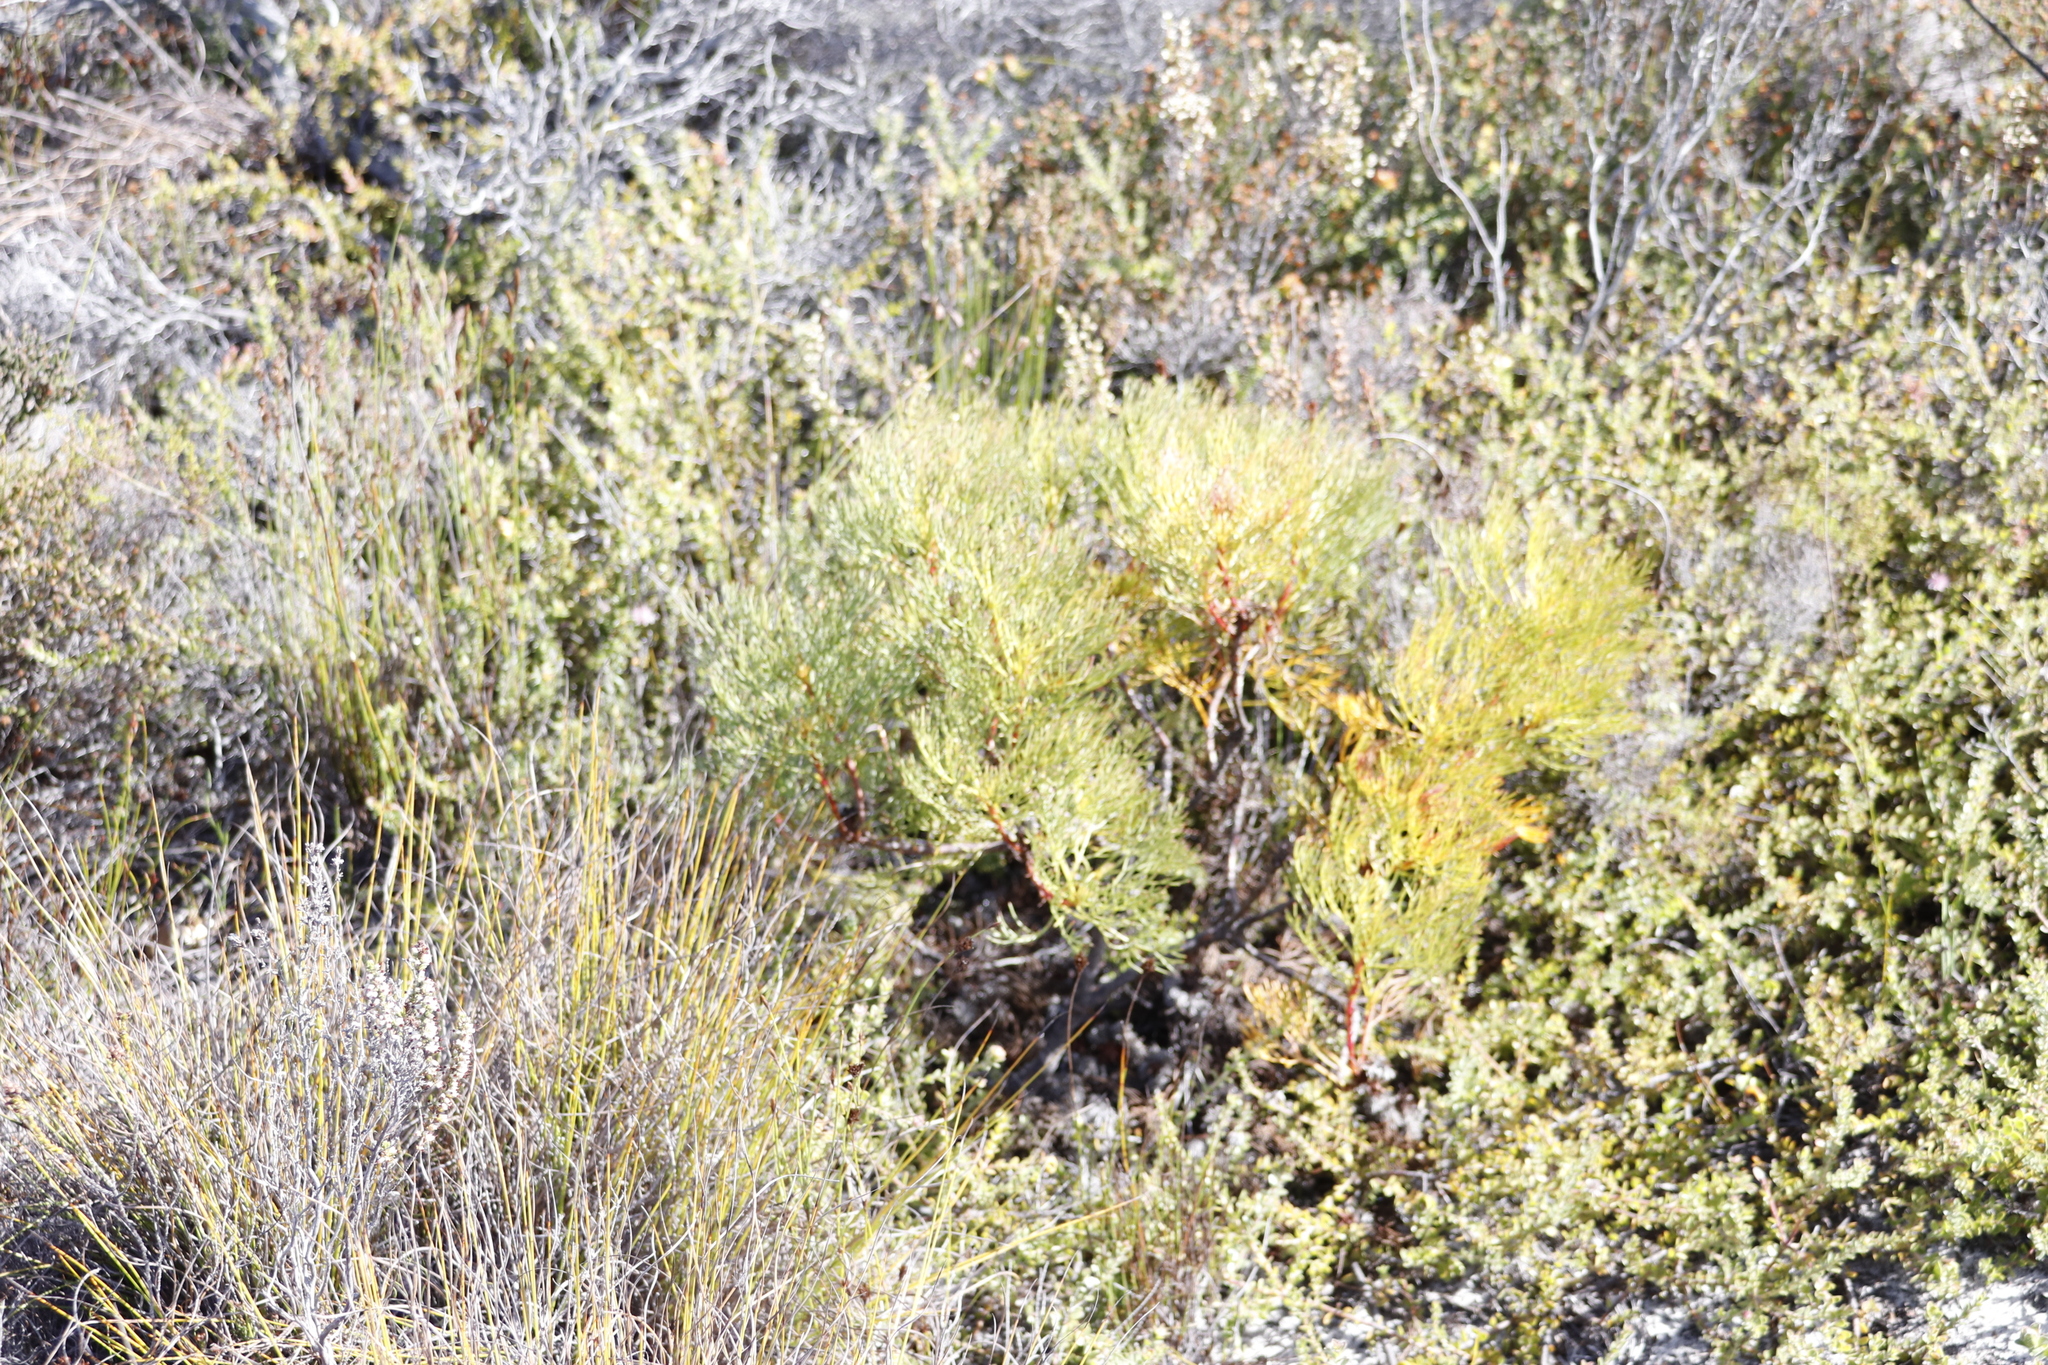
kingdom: Plantae
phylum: Tracheophyta
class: Magnoliopsida
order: Proteales
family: Proteaceae
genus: Serruria
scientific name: Serruria glomerata
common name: Cluster spiderhead
